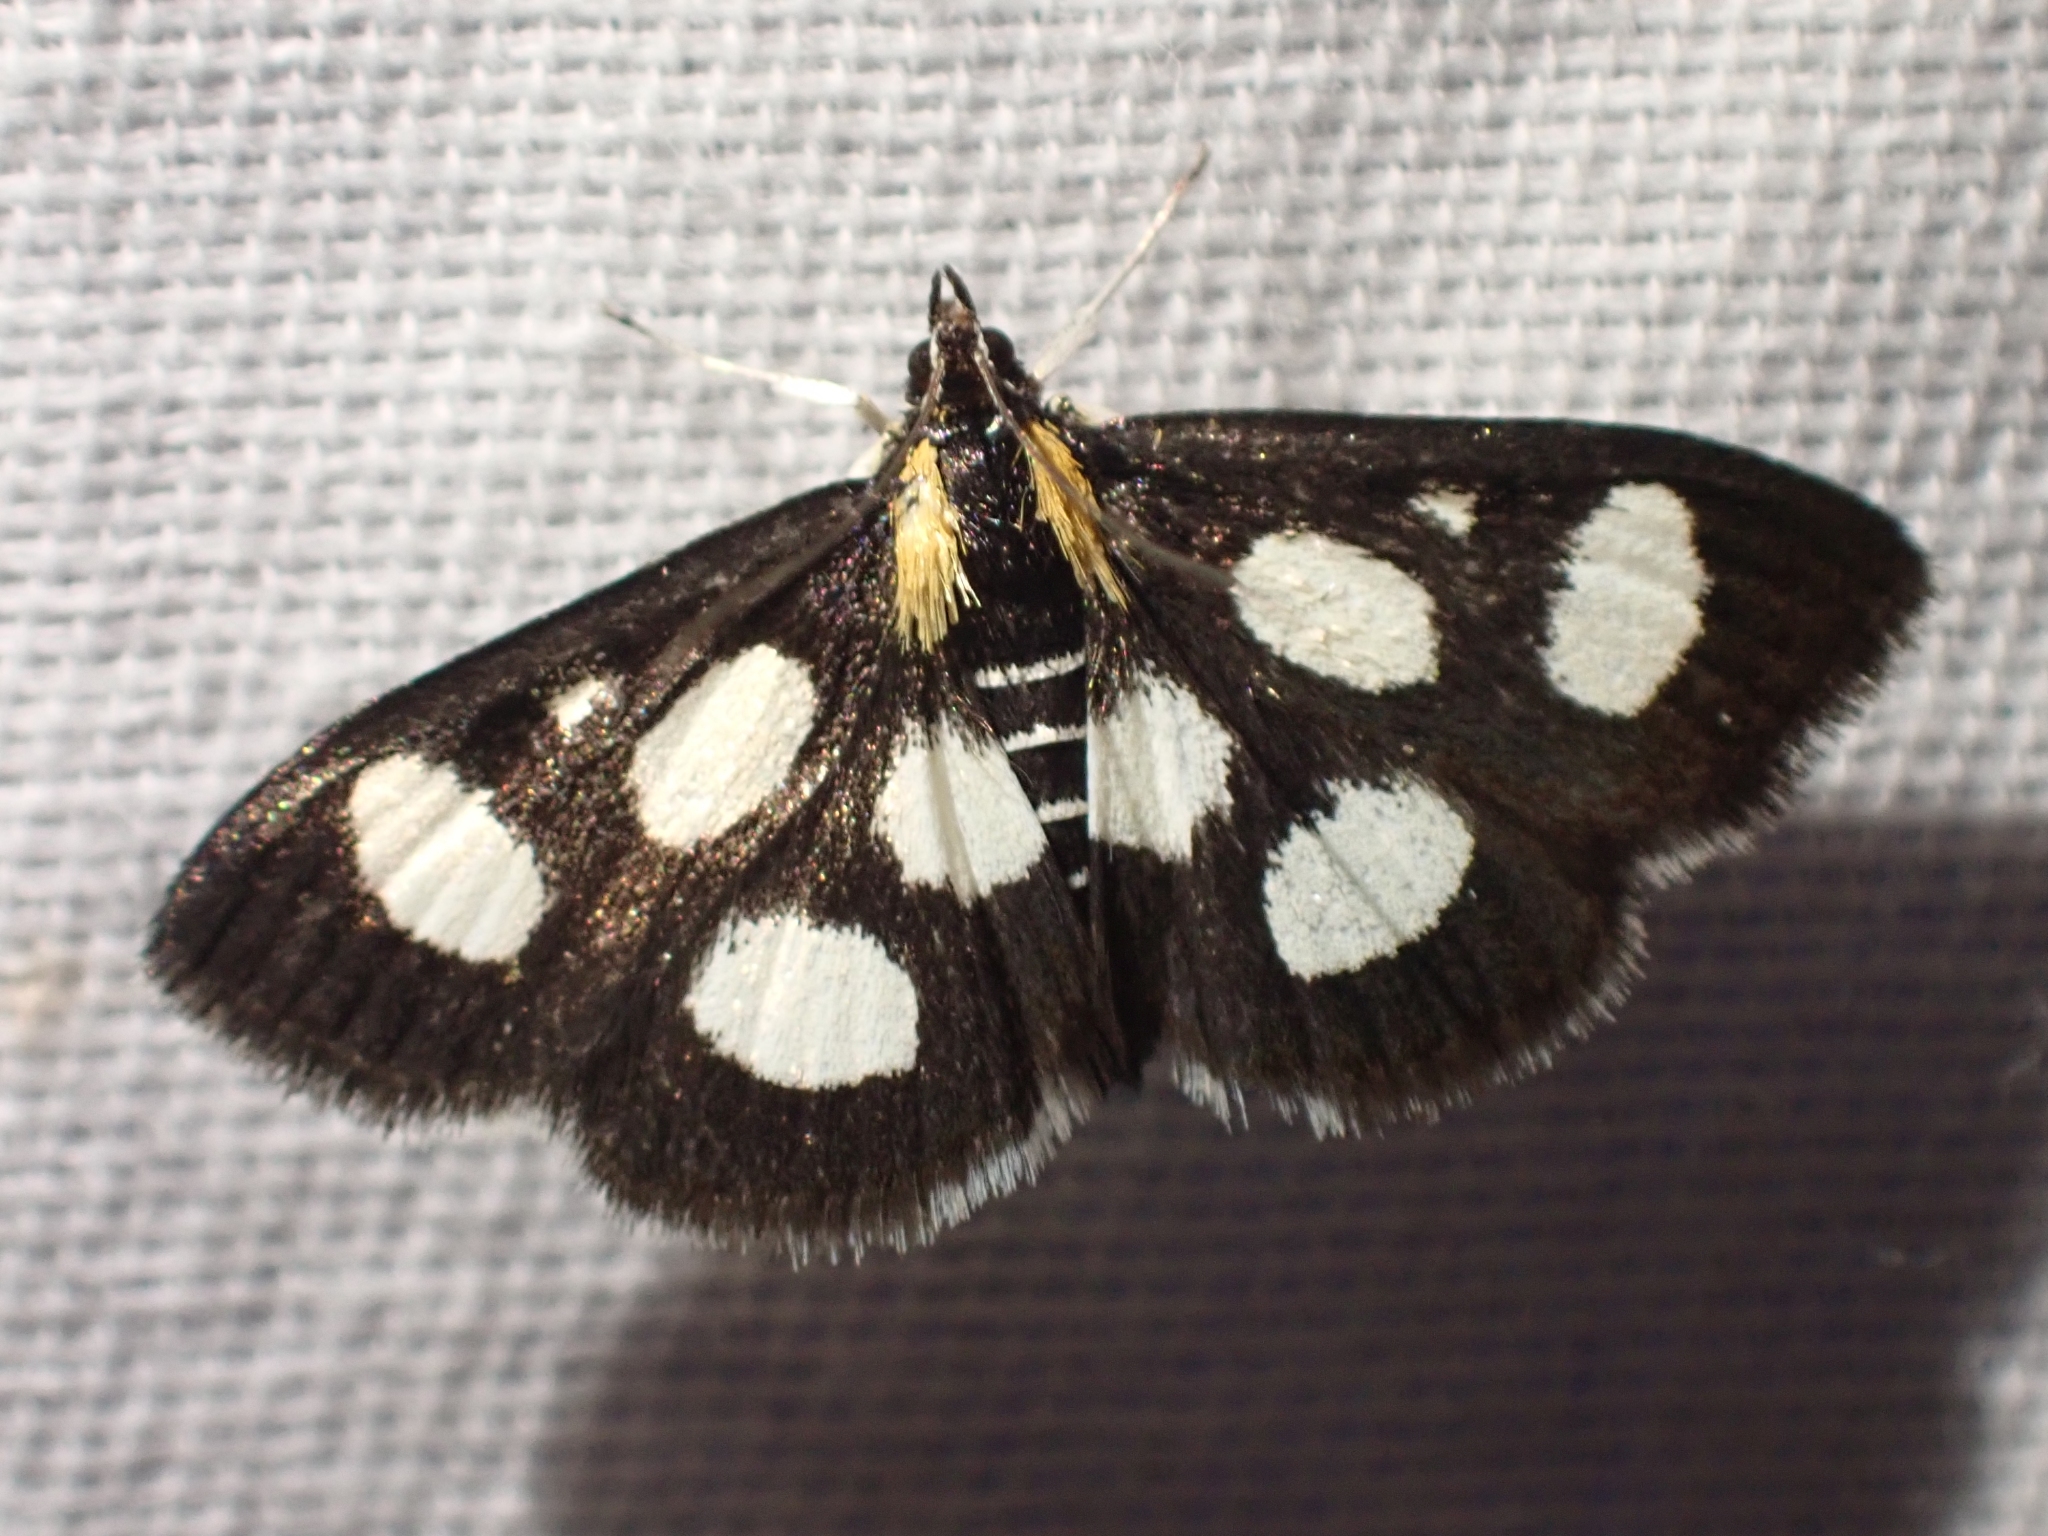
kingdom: Animalia
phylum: Arthropoda
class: Insecta
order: Lepidoptera
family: Crambidae
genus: Anania
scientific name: Anania funebris
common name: White-spotted sable moth
